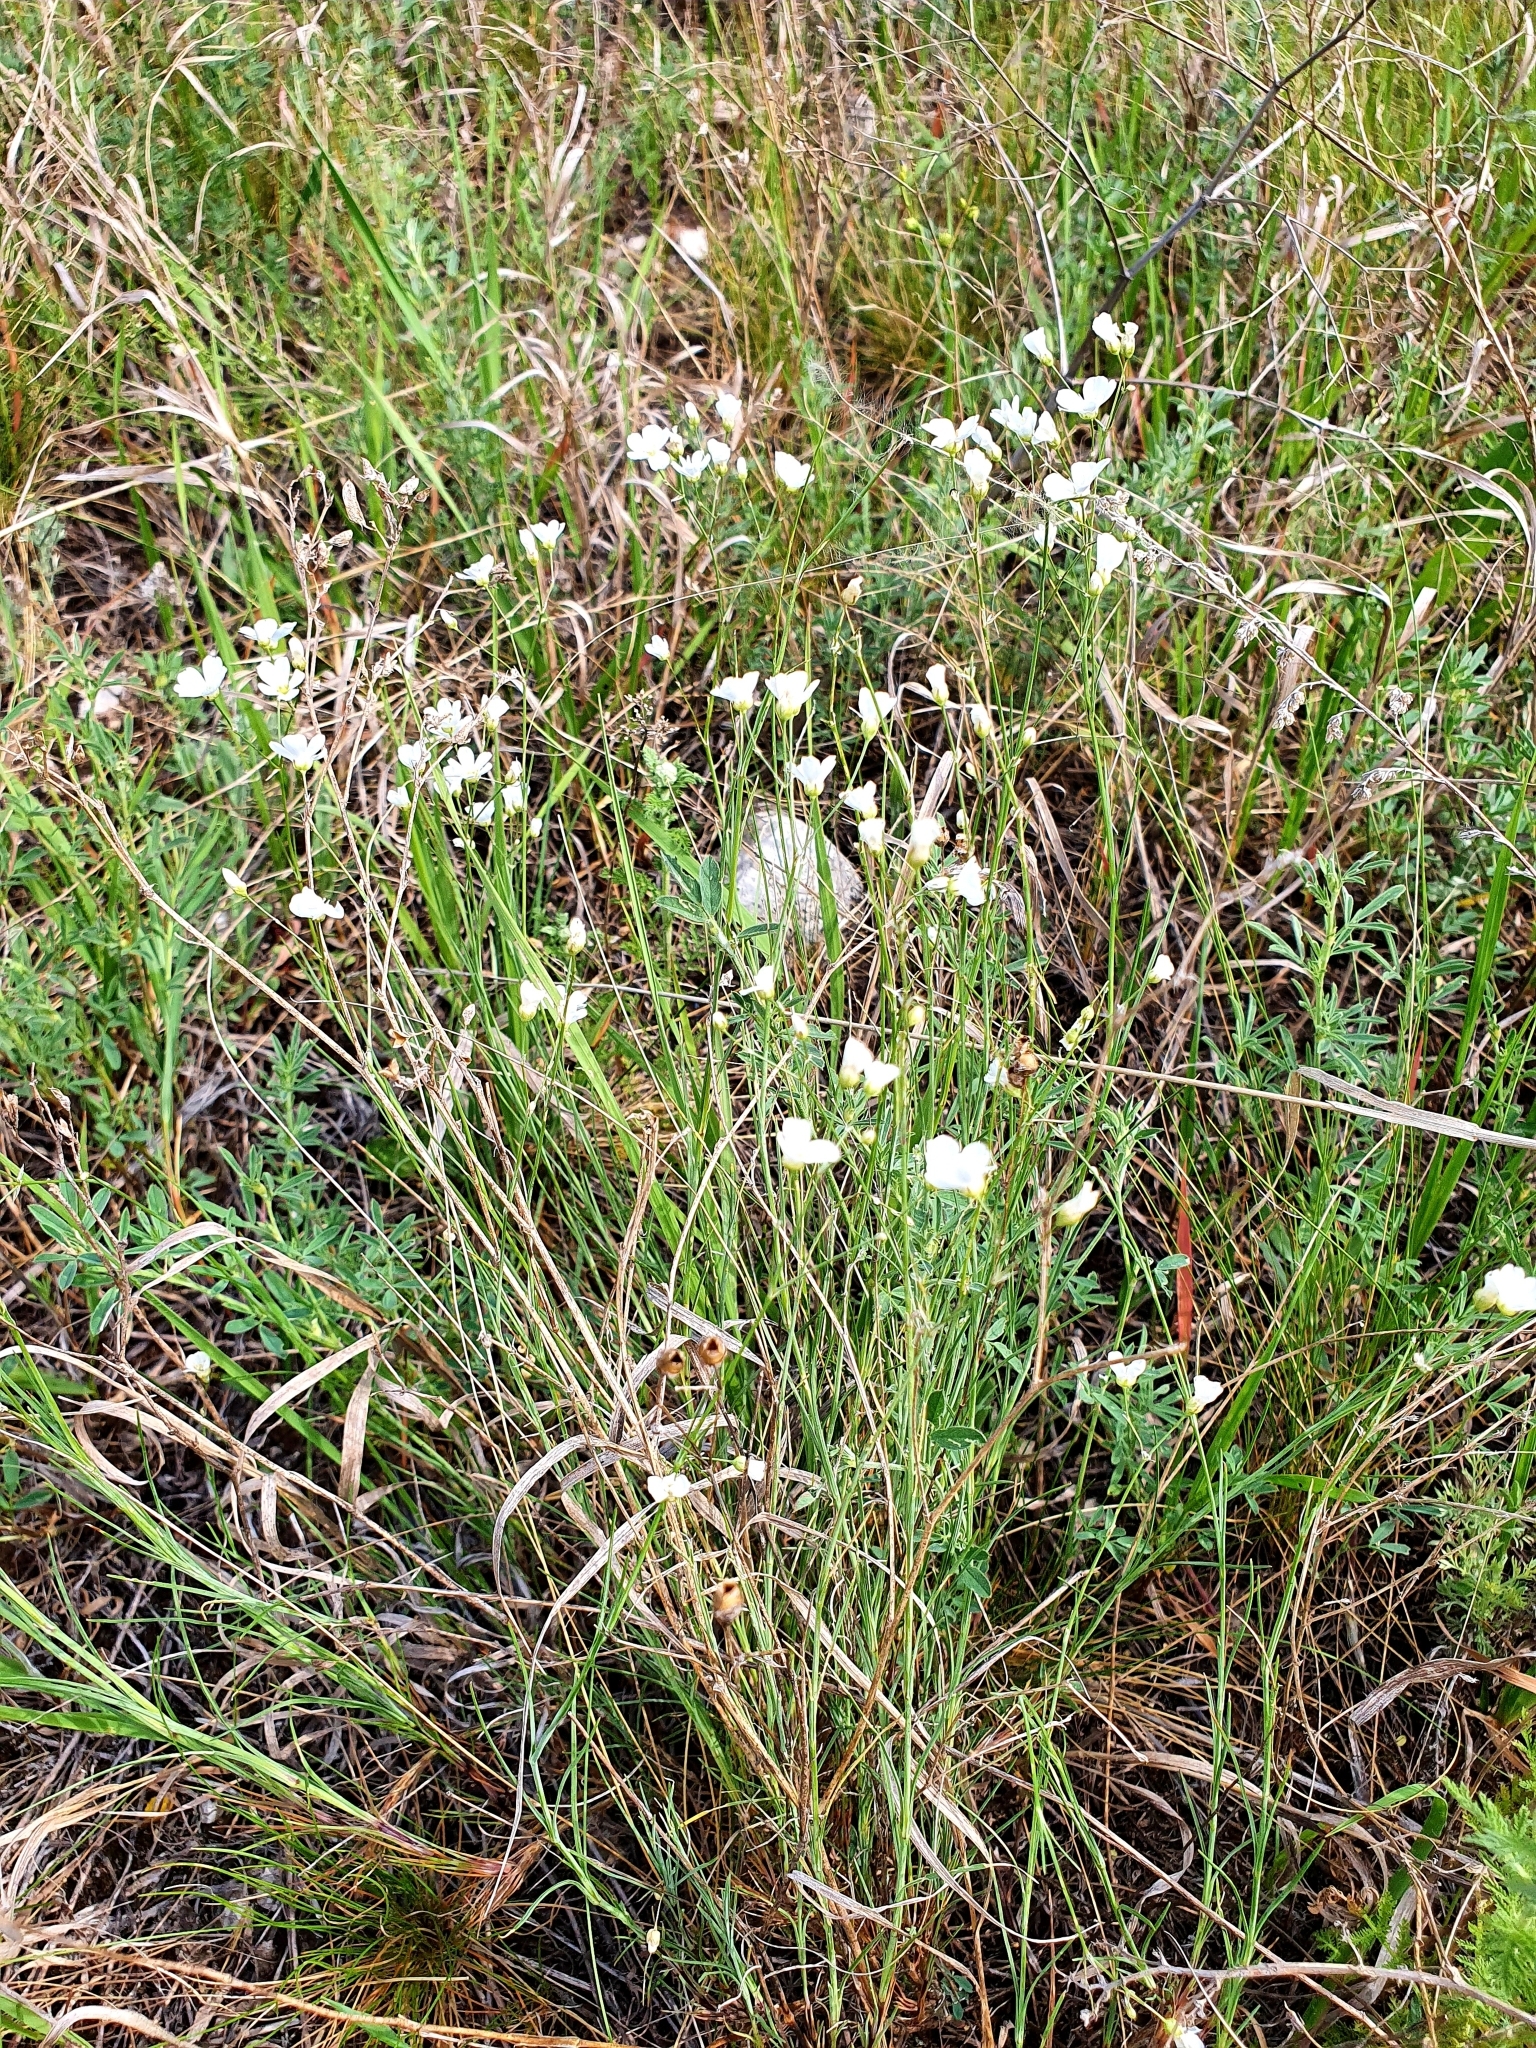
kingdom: Plantae
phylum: Tracheophyta
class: Magnoliopsida
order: Caryophyllales
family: Caryophyllaceae
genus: Eremogone
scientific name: Eremogone saxatilis
